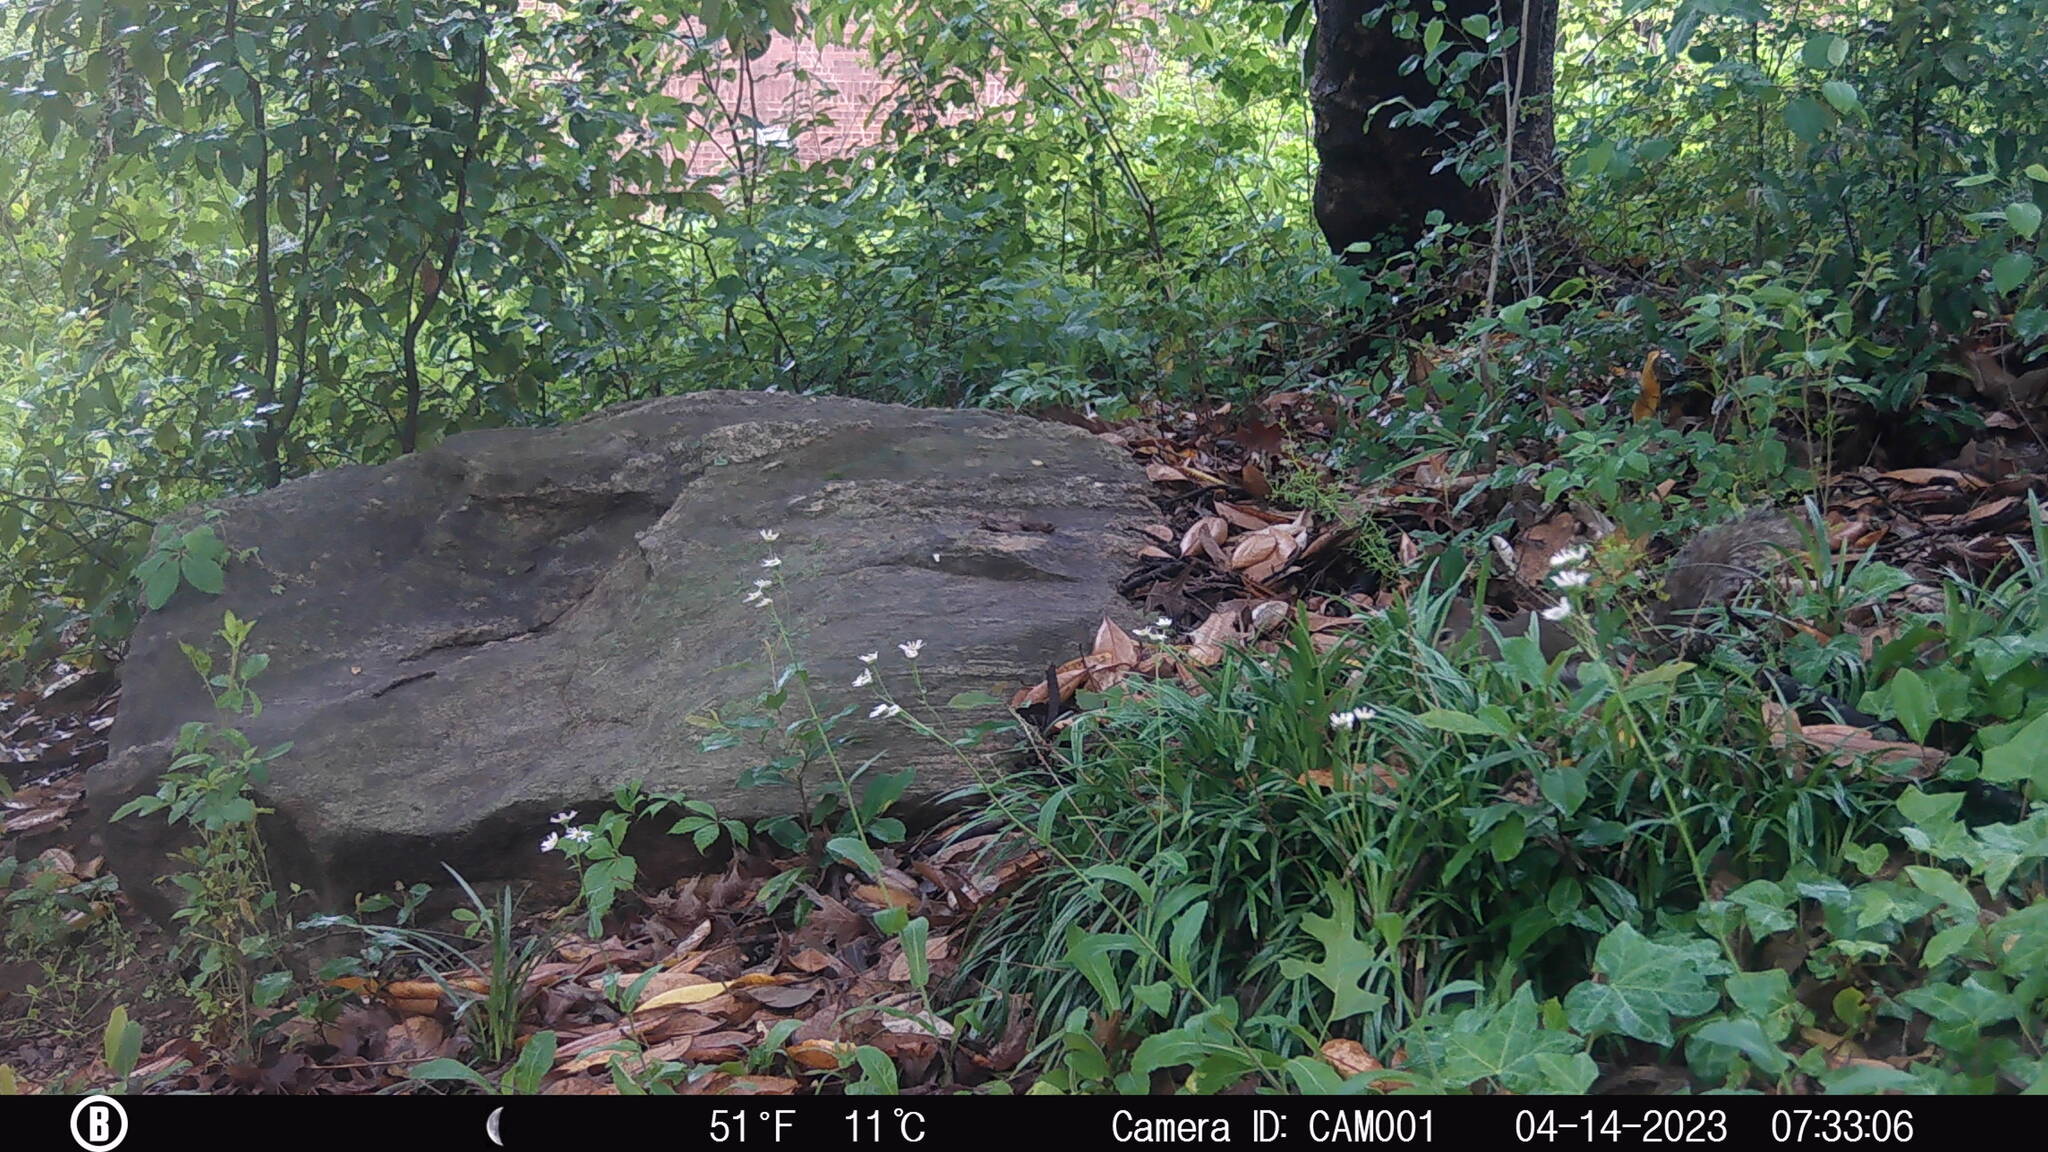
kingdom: Animalia
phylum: Chordata
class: Mammalia
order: Rodentia
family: Sciuridae
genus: Sciurus
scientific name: Sciurus carolinensis
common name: Eastern gray squirrel
